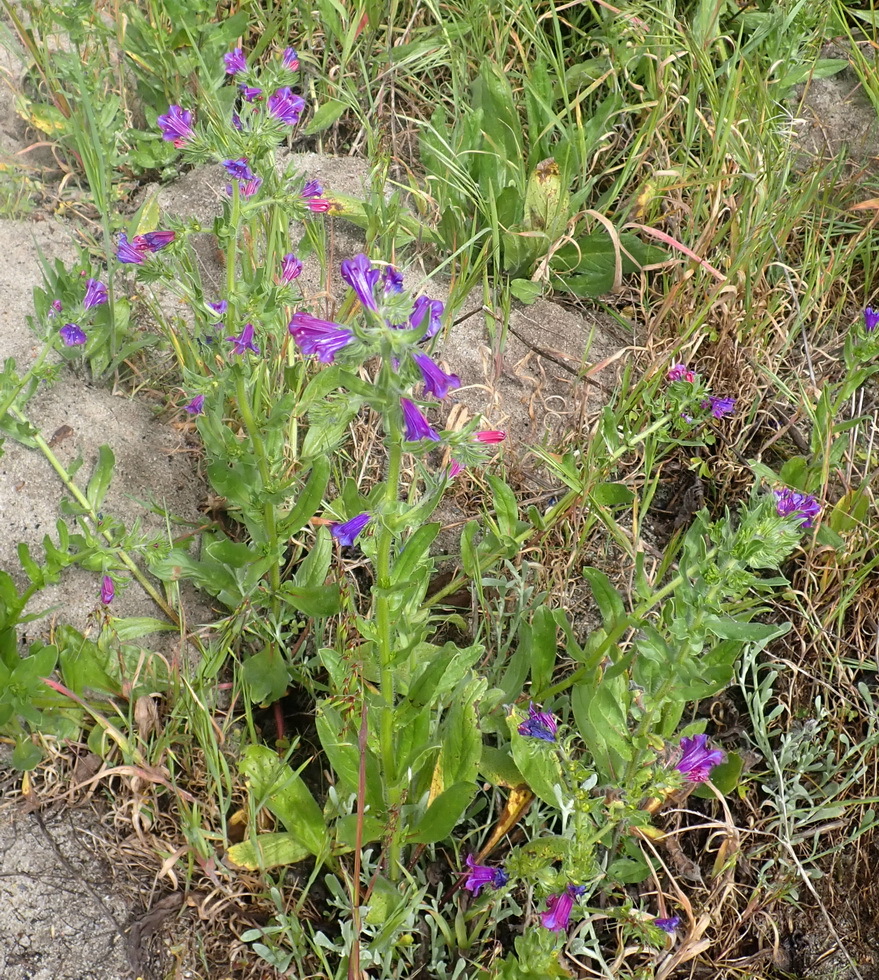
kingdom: Plantae
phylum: Tracheophyta
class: Magnoliopsida
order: Boraginales
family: Boraginaceae
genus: Echium
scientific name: Echium plantagineum
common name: Purple viper's-bugloss
